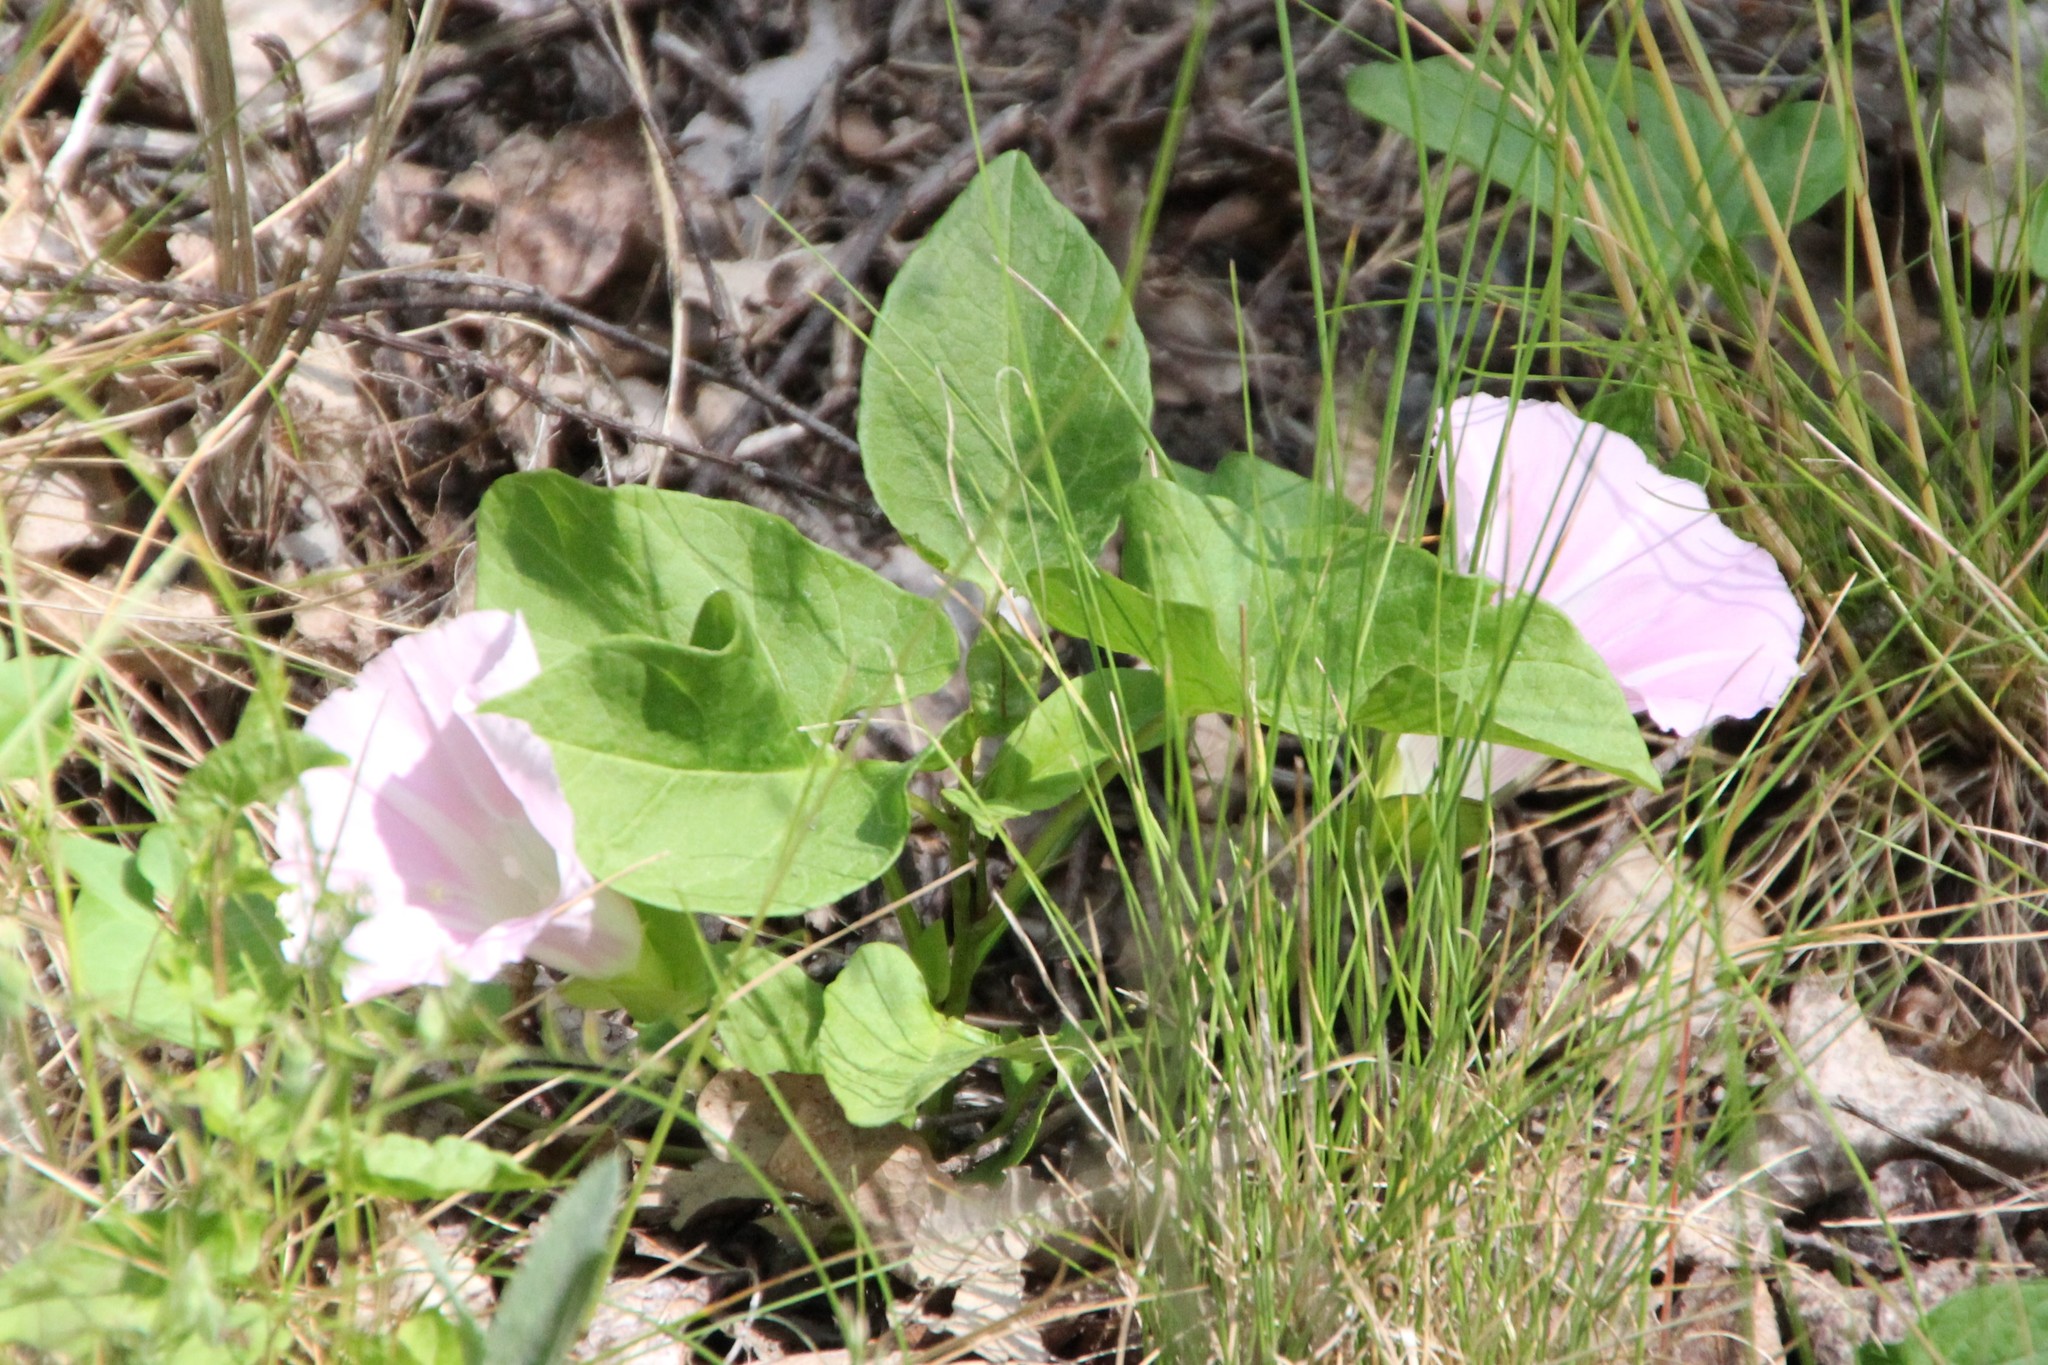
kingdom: Plantae
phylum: Tracheophyta
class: Magnoliopsida
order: Solanales
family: Convolvulaceae
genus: Calystegia
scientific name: Calystegia sepium
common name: Hedge bindweed
